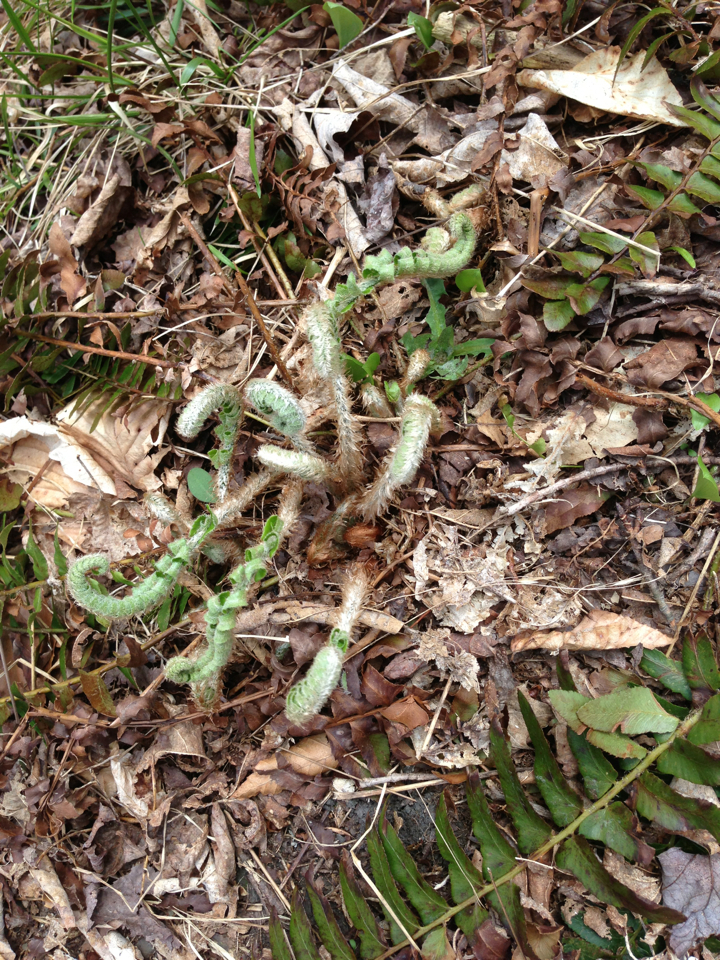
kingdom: Plantae
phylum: Tracheophyta
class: Polypodiopsida
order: Polypodiales
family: Dryopteridaceae
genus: Polystichum
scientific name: Polystichum acrostichoides
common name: Christmas fern
